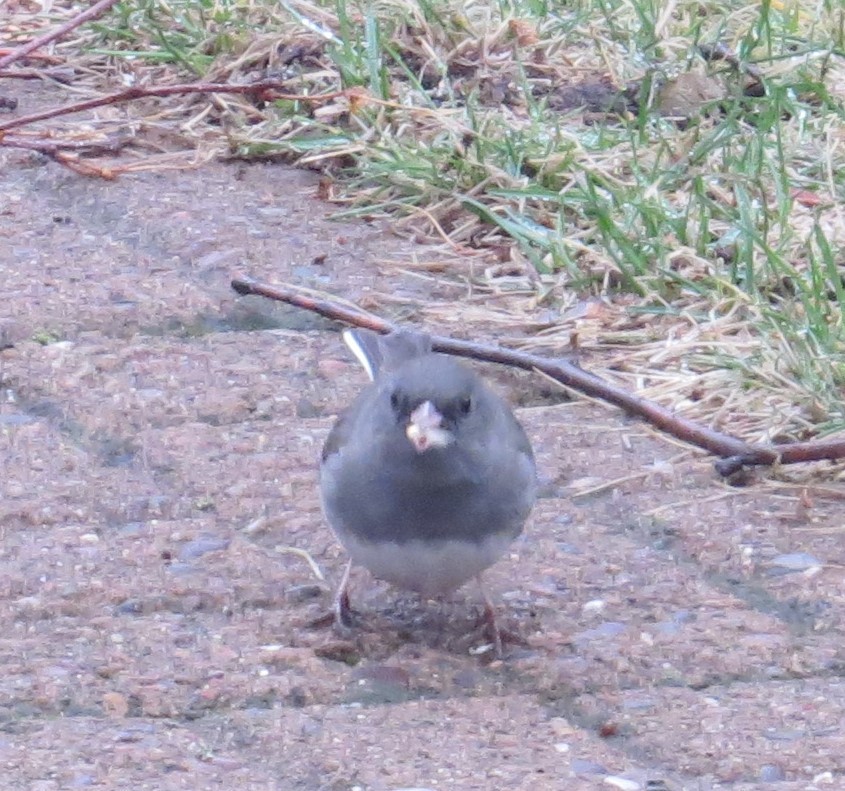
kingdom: Animalia
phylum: Chordata
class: Aves
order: Passeriformes
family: Passerellidae
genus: Junco
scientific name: Junco hyemalis
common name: Dark-eyed junco
